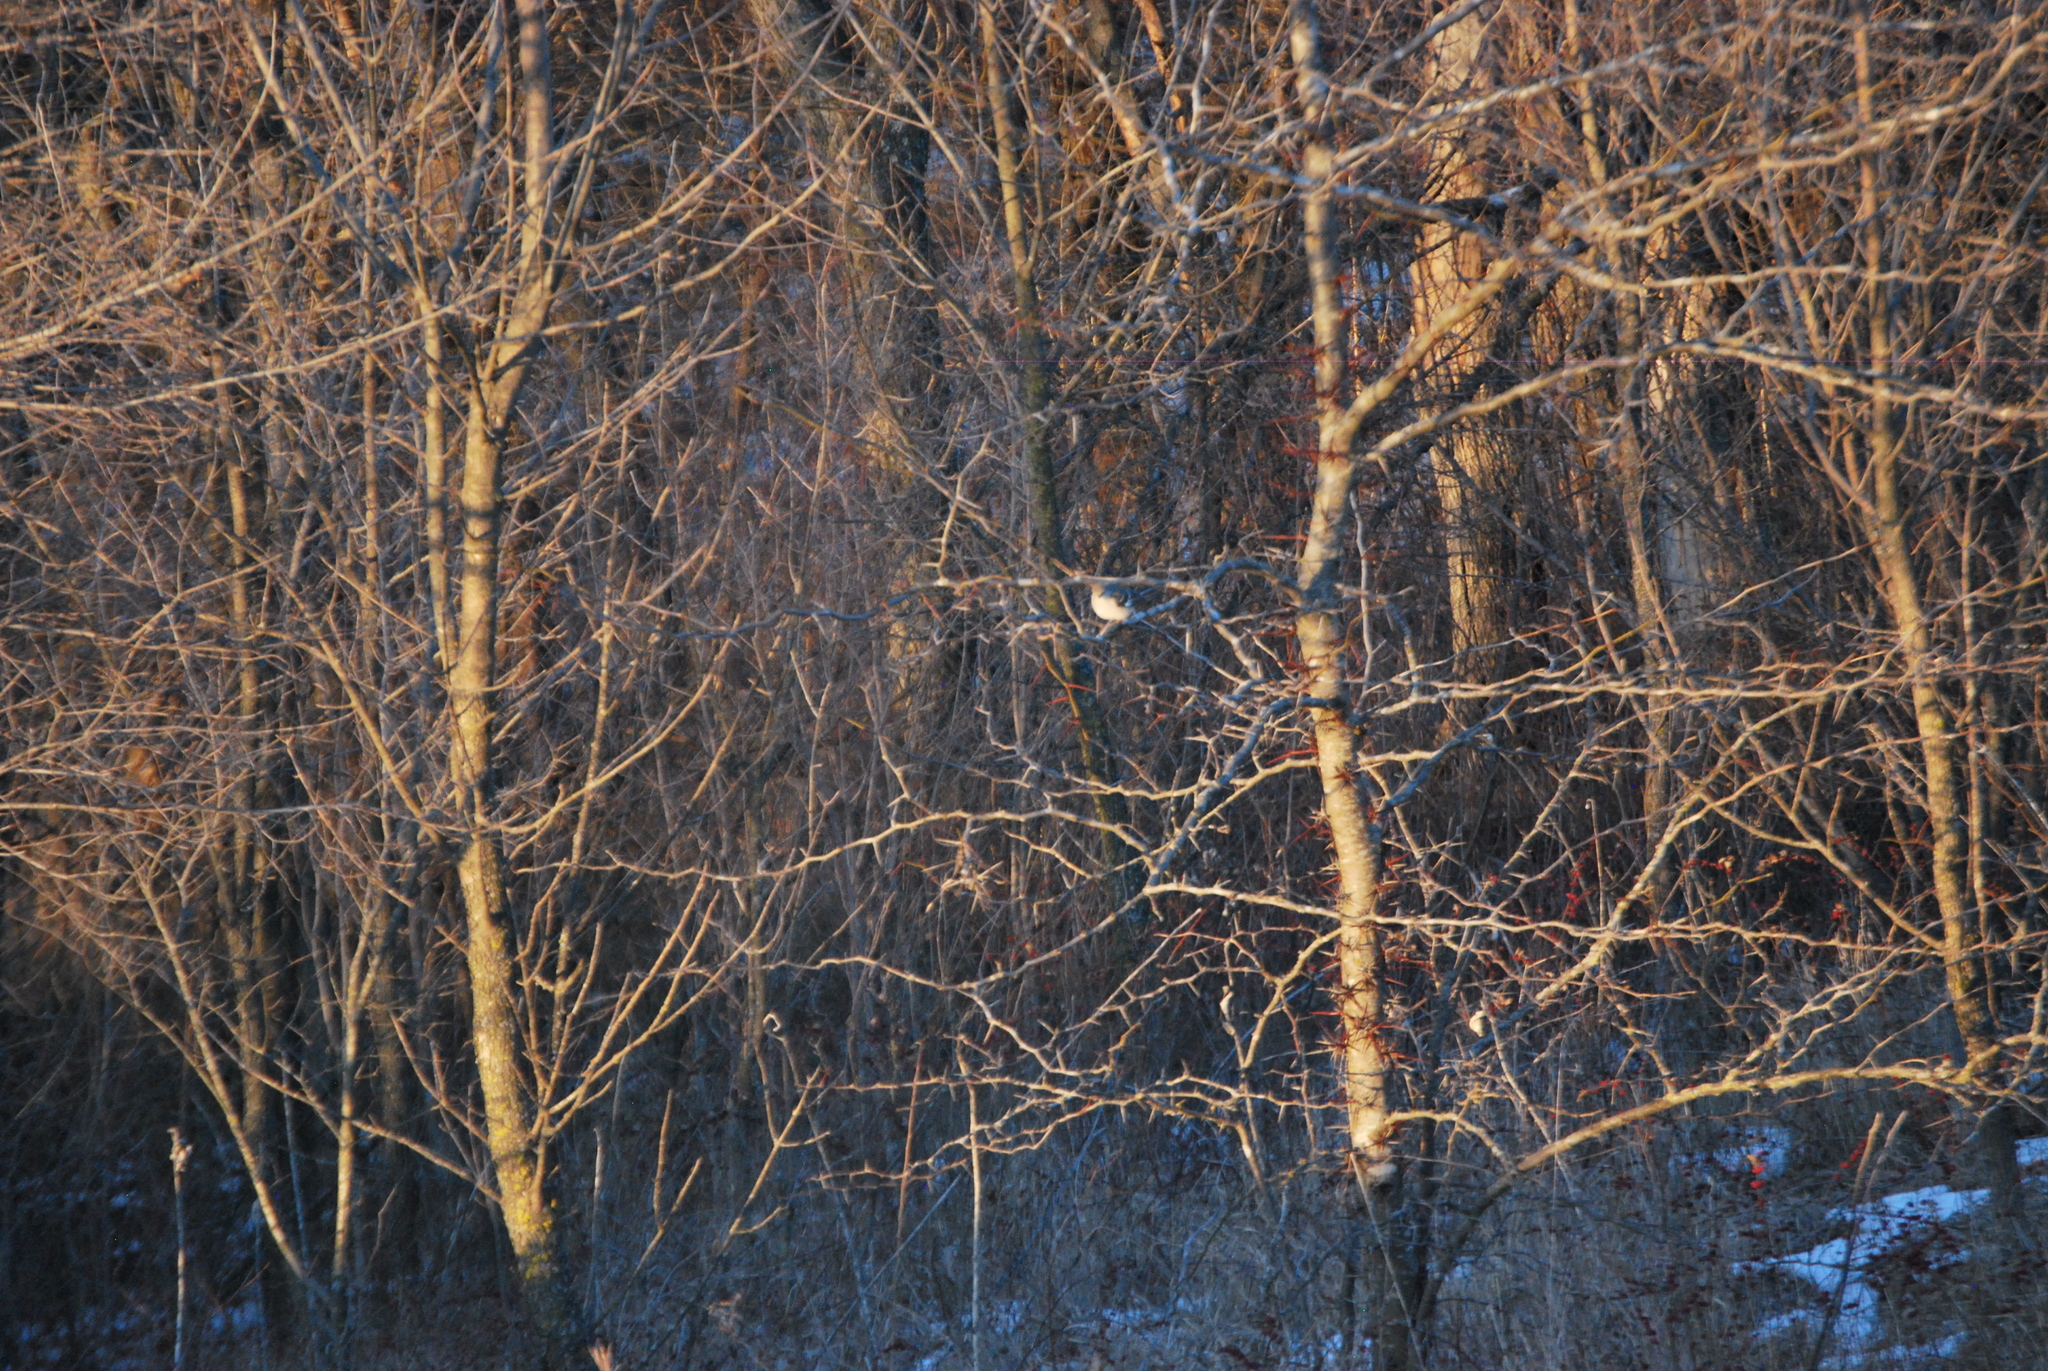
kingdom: Animalia
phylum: Chordata
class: Aves
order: Passeriformes
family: Mimidae
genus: Mimus
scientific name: Mimus polyglottos
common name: Northern mockingbird
